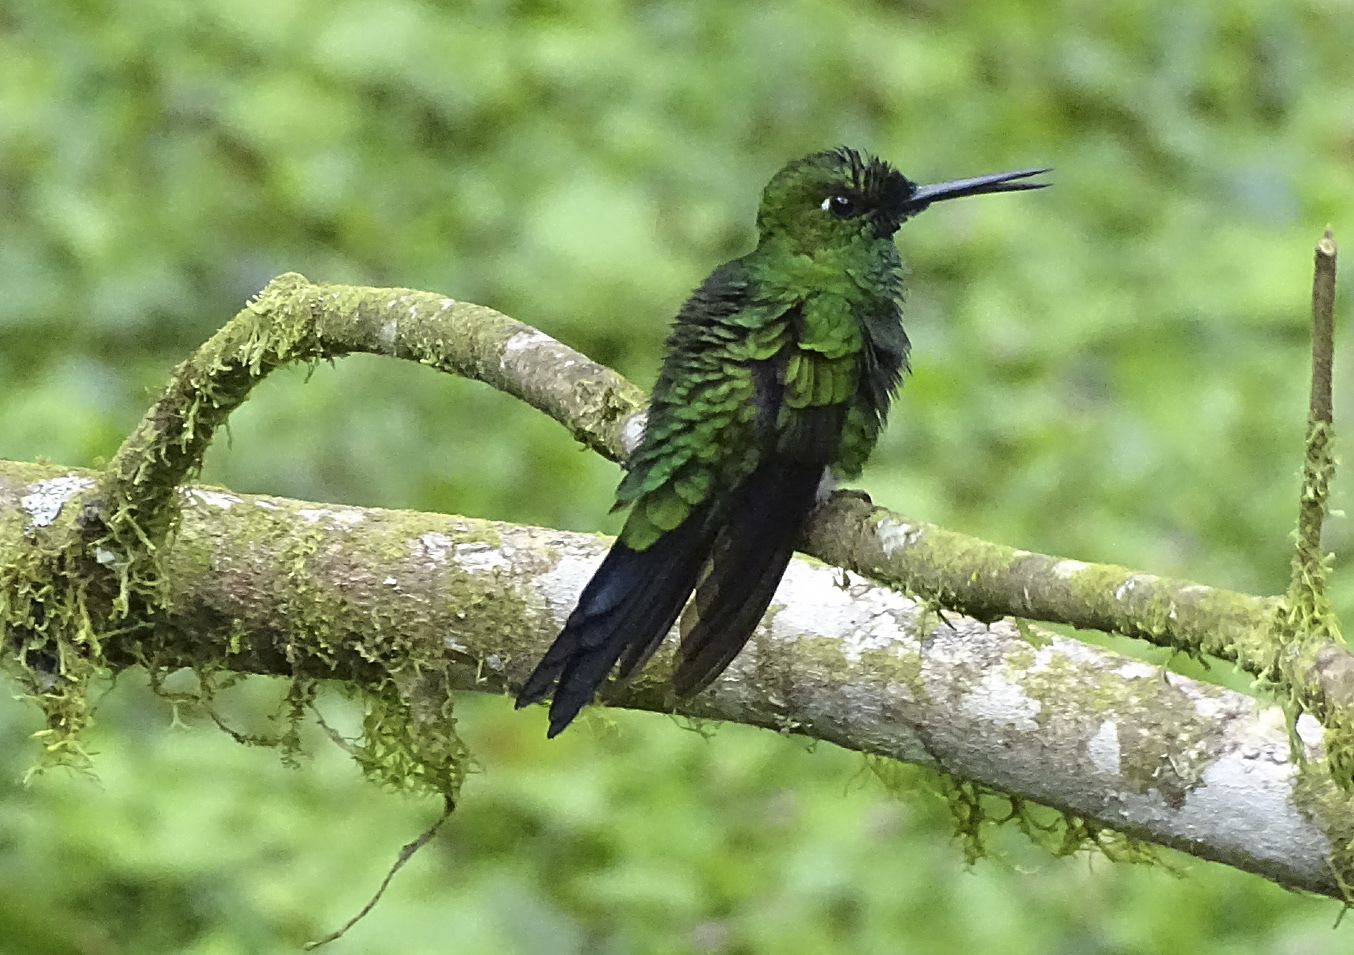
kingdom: Animalia
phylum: Chordata
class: Aves
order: Apodiformes
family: Trochilidae
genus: Heliodoxa
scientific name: Heliodoxa jacula
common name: Green-crowned brilliant
